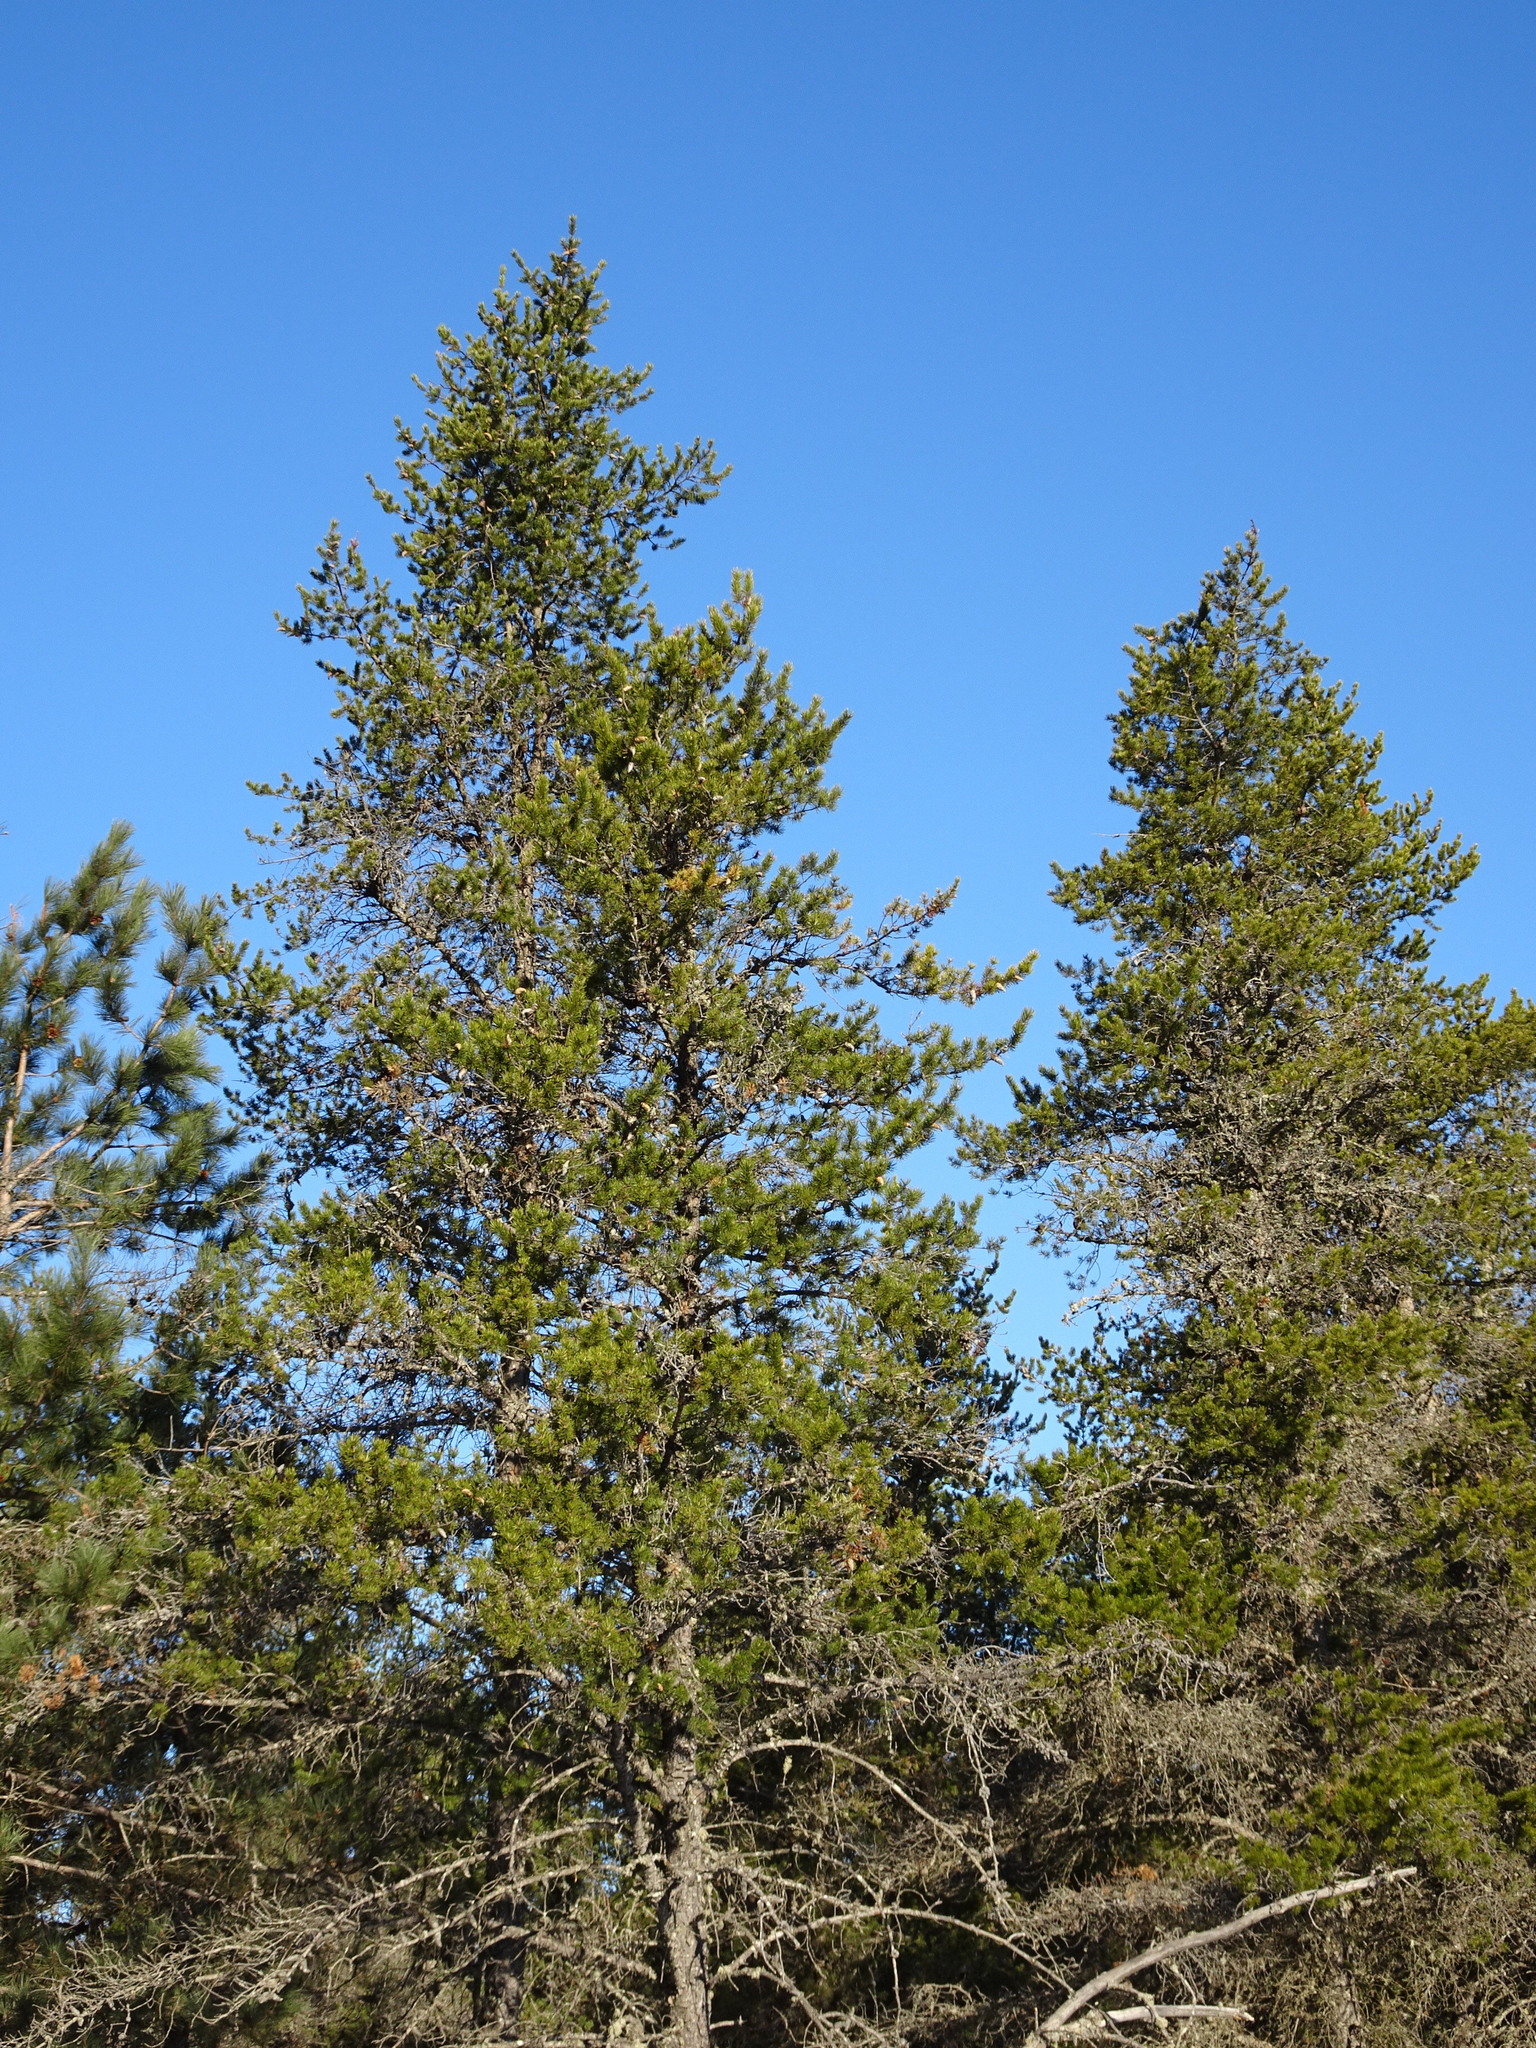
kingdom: Plantae
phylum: Tracheophyta
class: Pinopsida
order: Pinales
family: Pinaceae
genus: Pinus
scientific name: Pinus banksiana
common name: Jack pine
